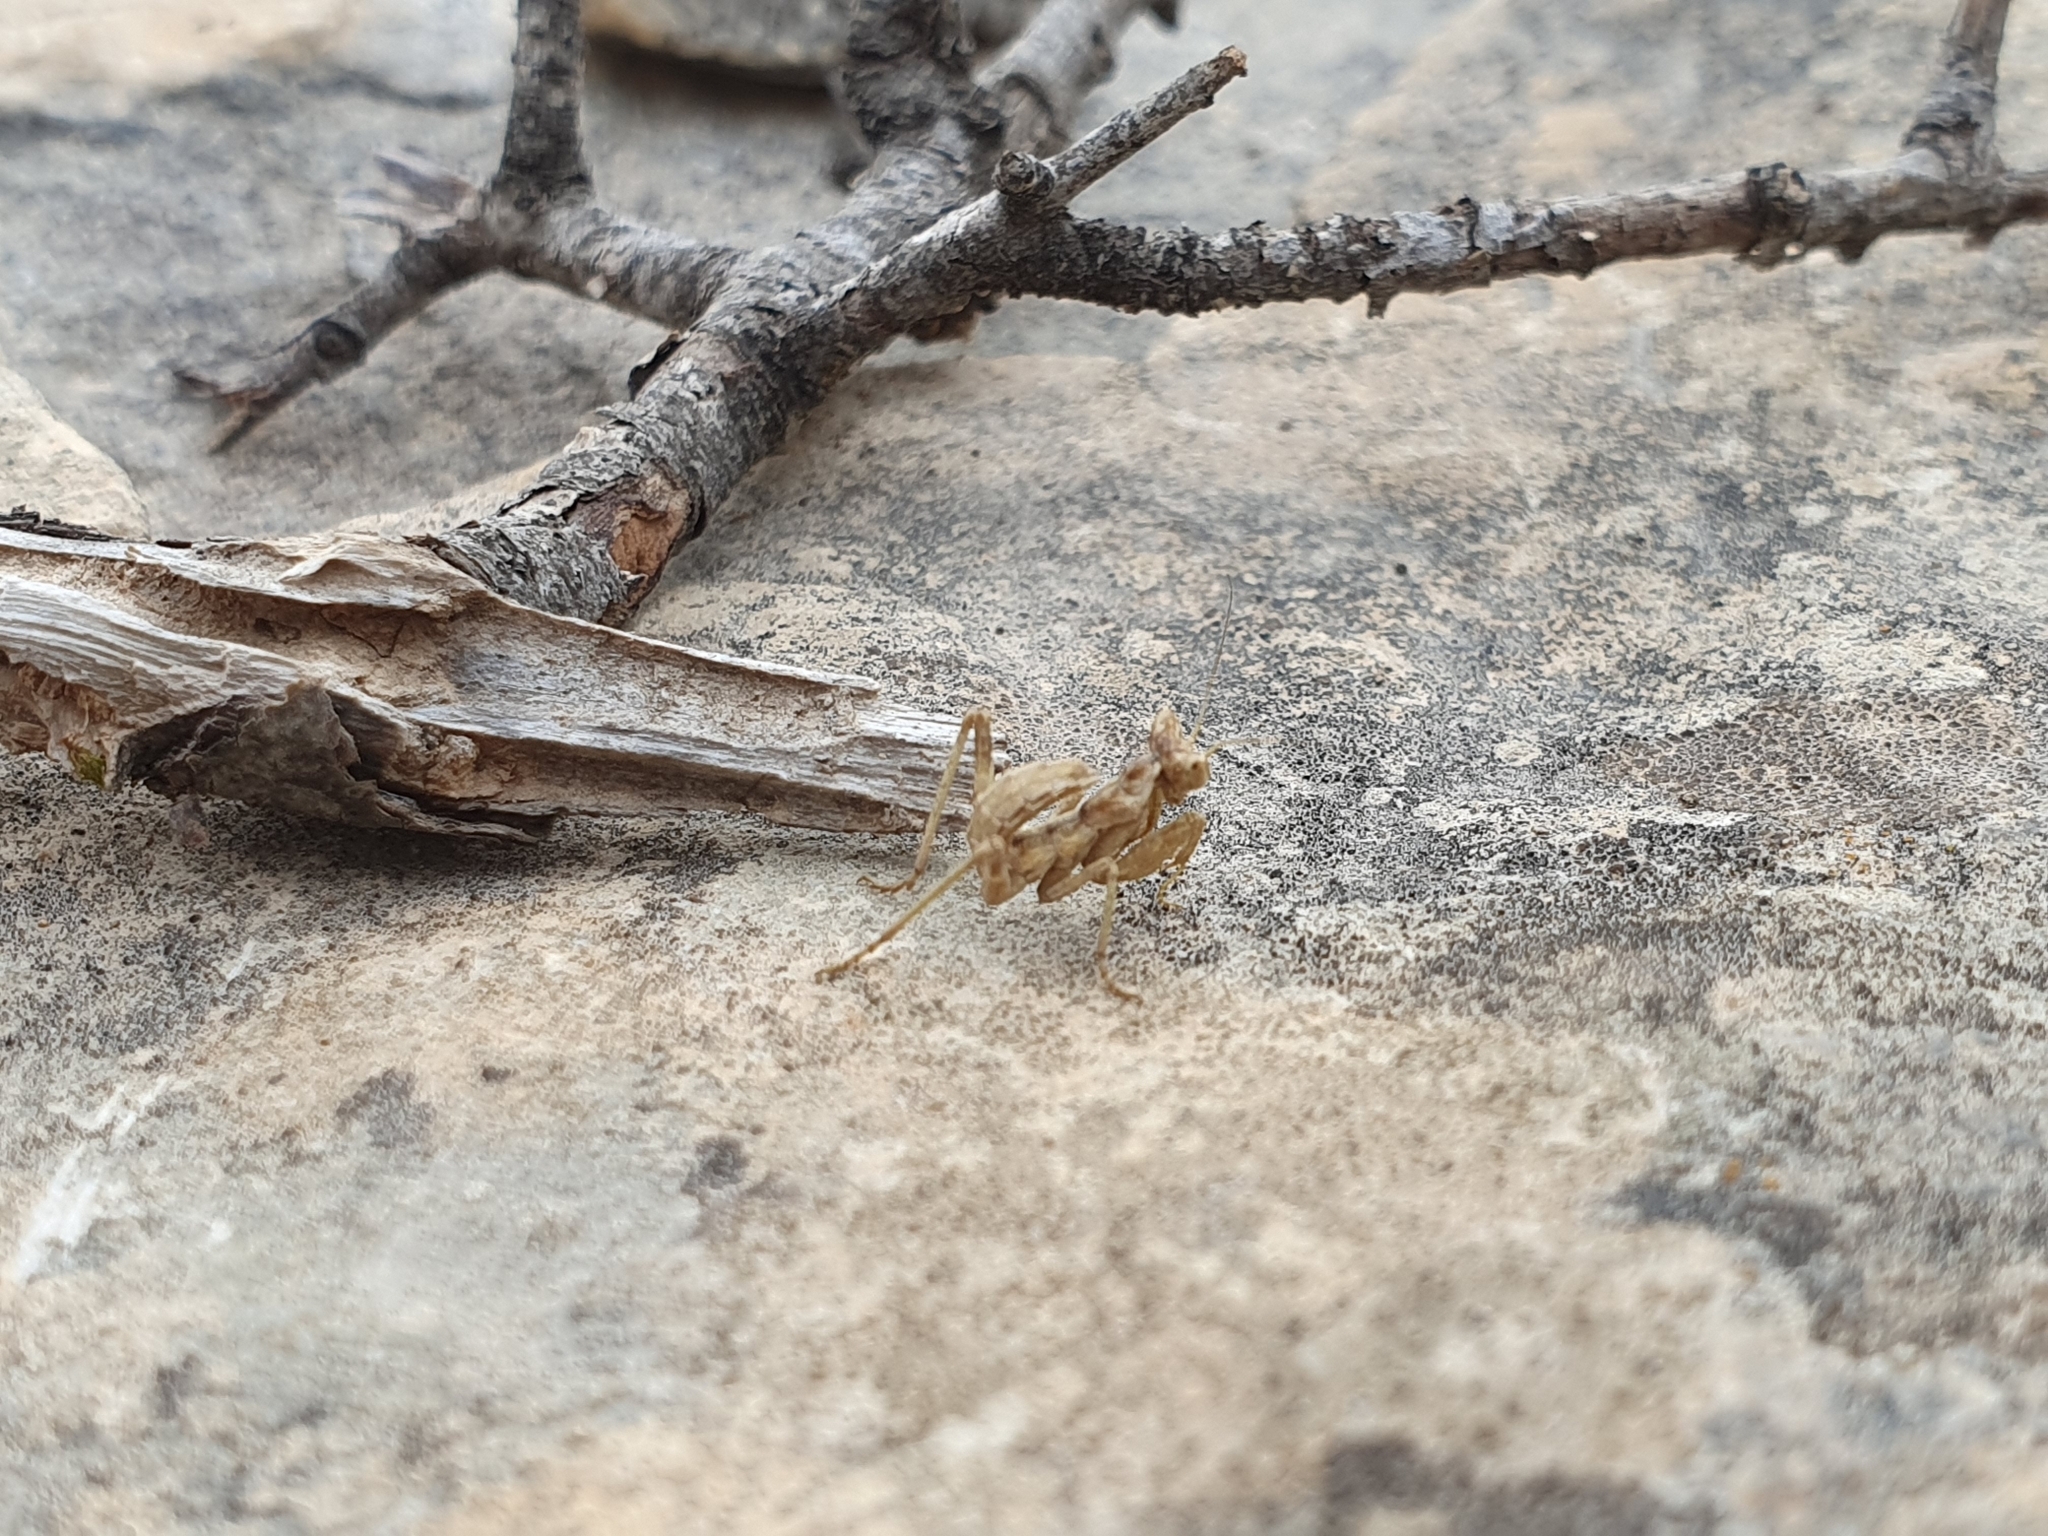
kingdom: Animalia
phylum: Arthropoda
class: Insecta
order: Mantodea
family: Amelidae
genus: Ameles
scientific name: Ameles spallanzania
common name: European dwarf mantis
